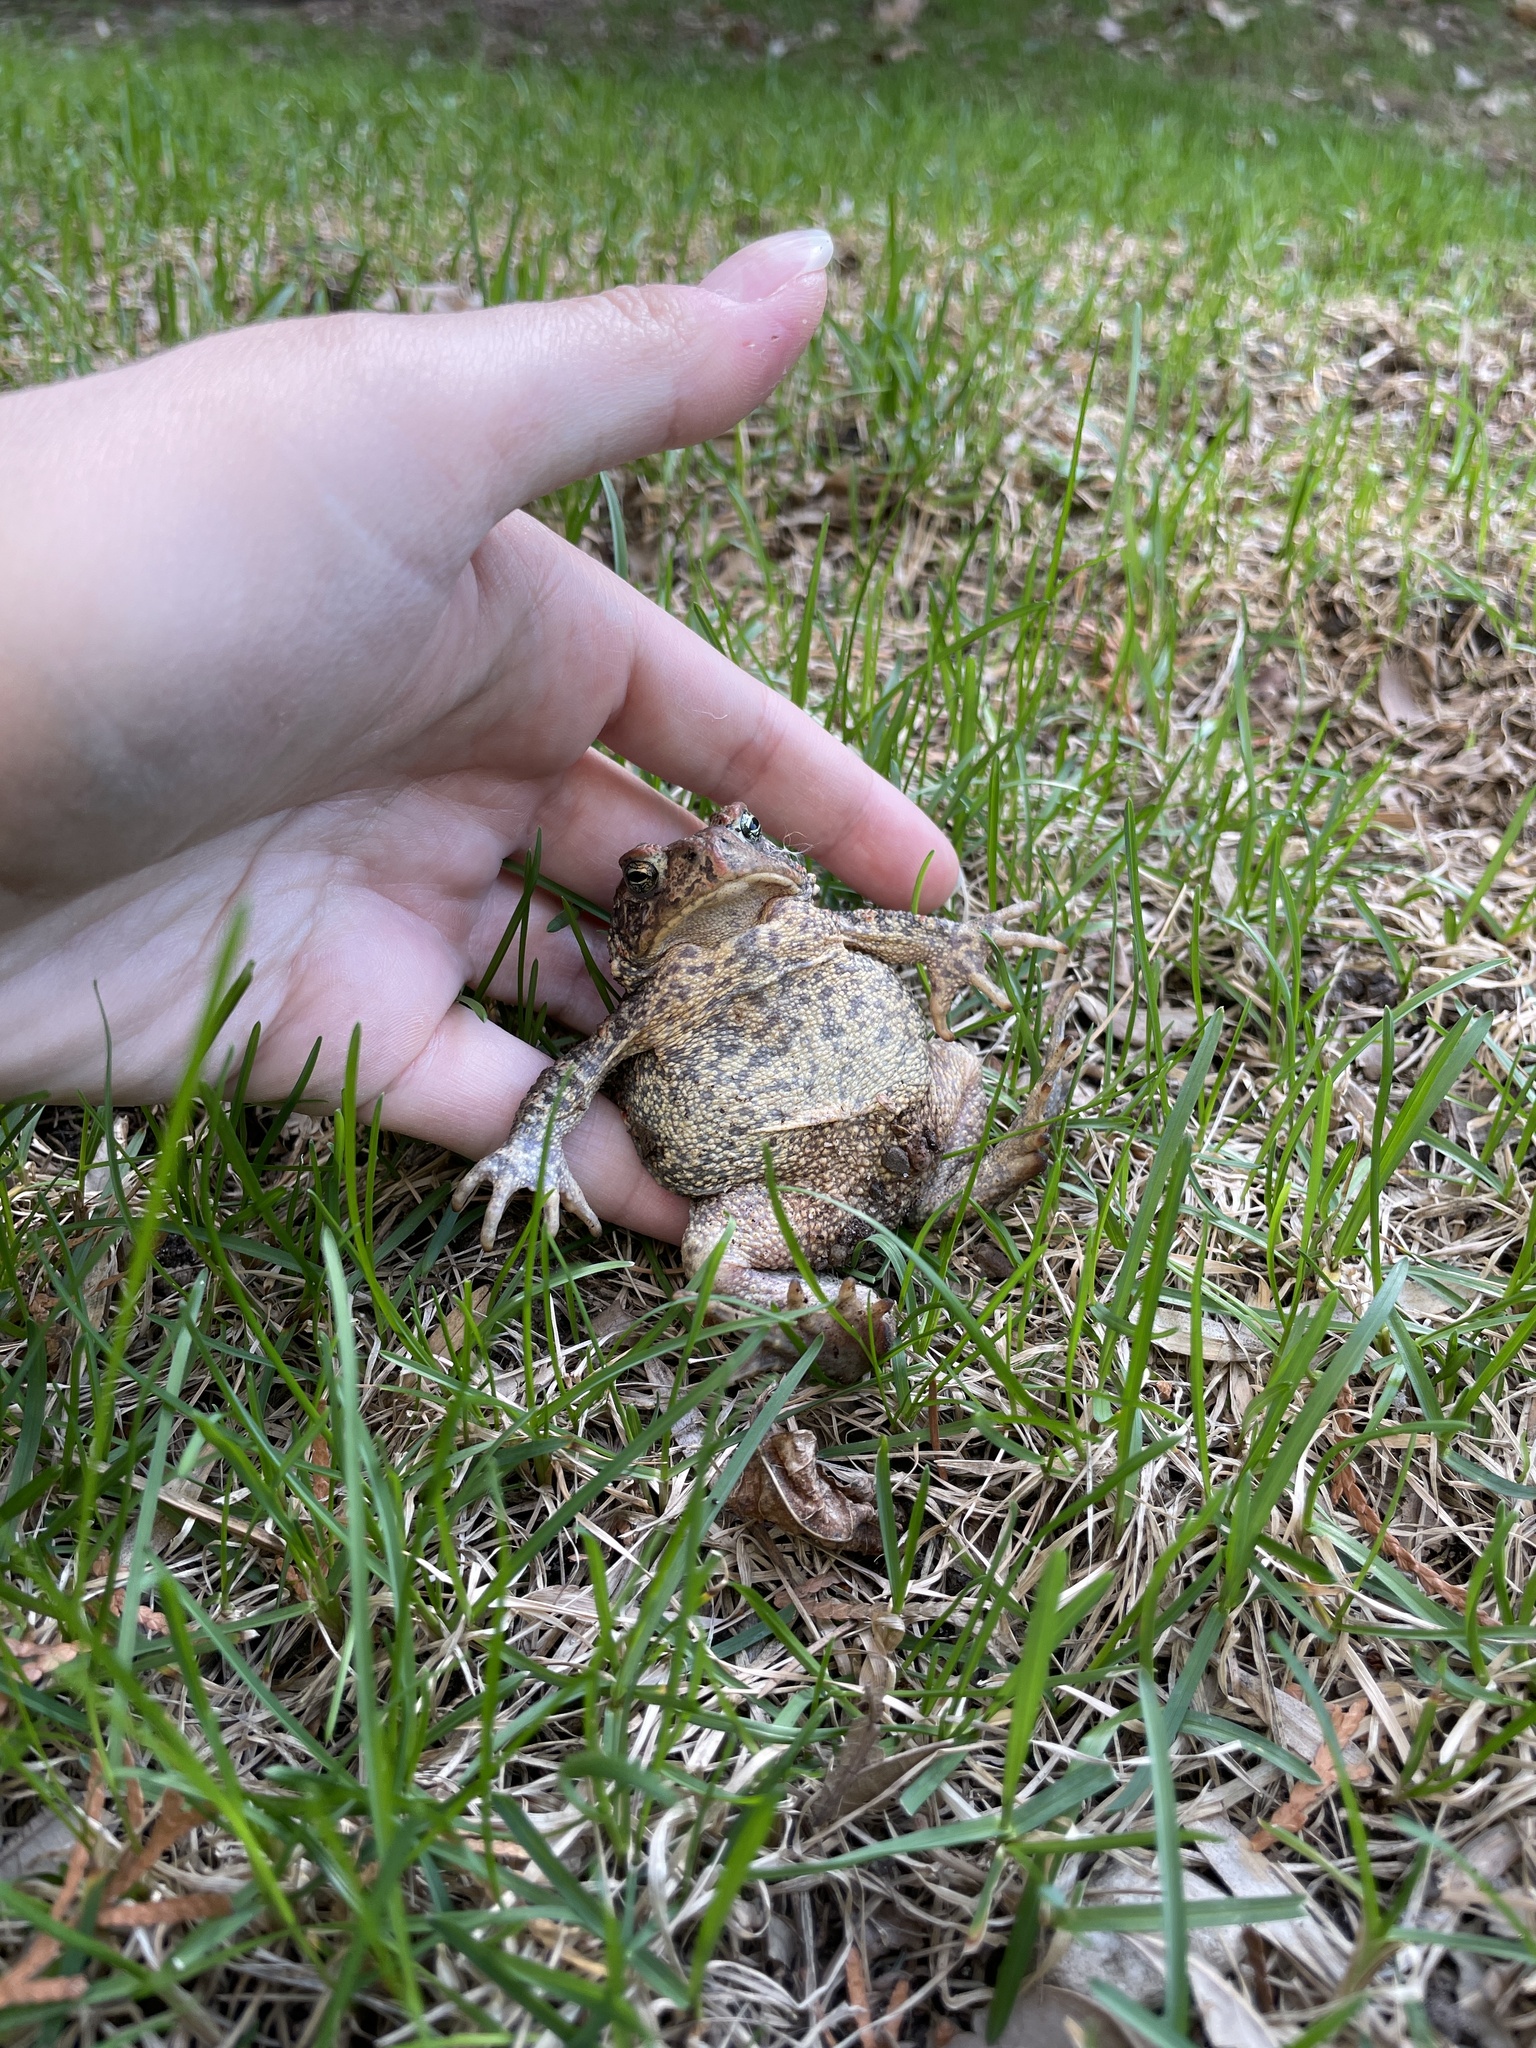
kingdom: Animalia
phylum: Chordata
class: Amphibia
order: Anura
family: Bufonidae
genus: Anaxyrus
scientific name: Anaxyrus americanus
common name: American toad
